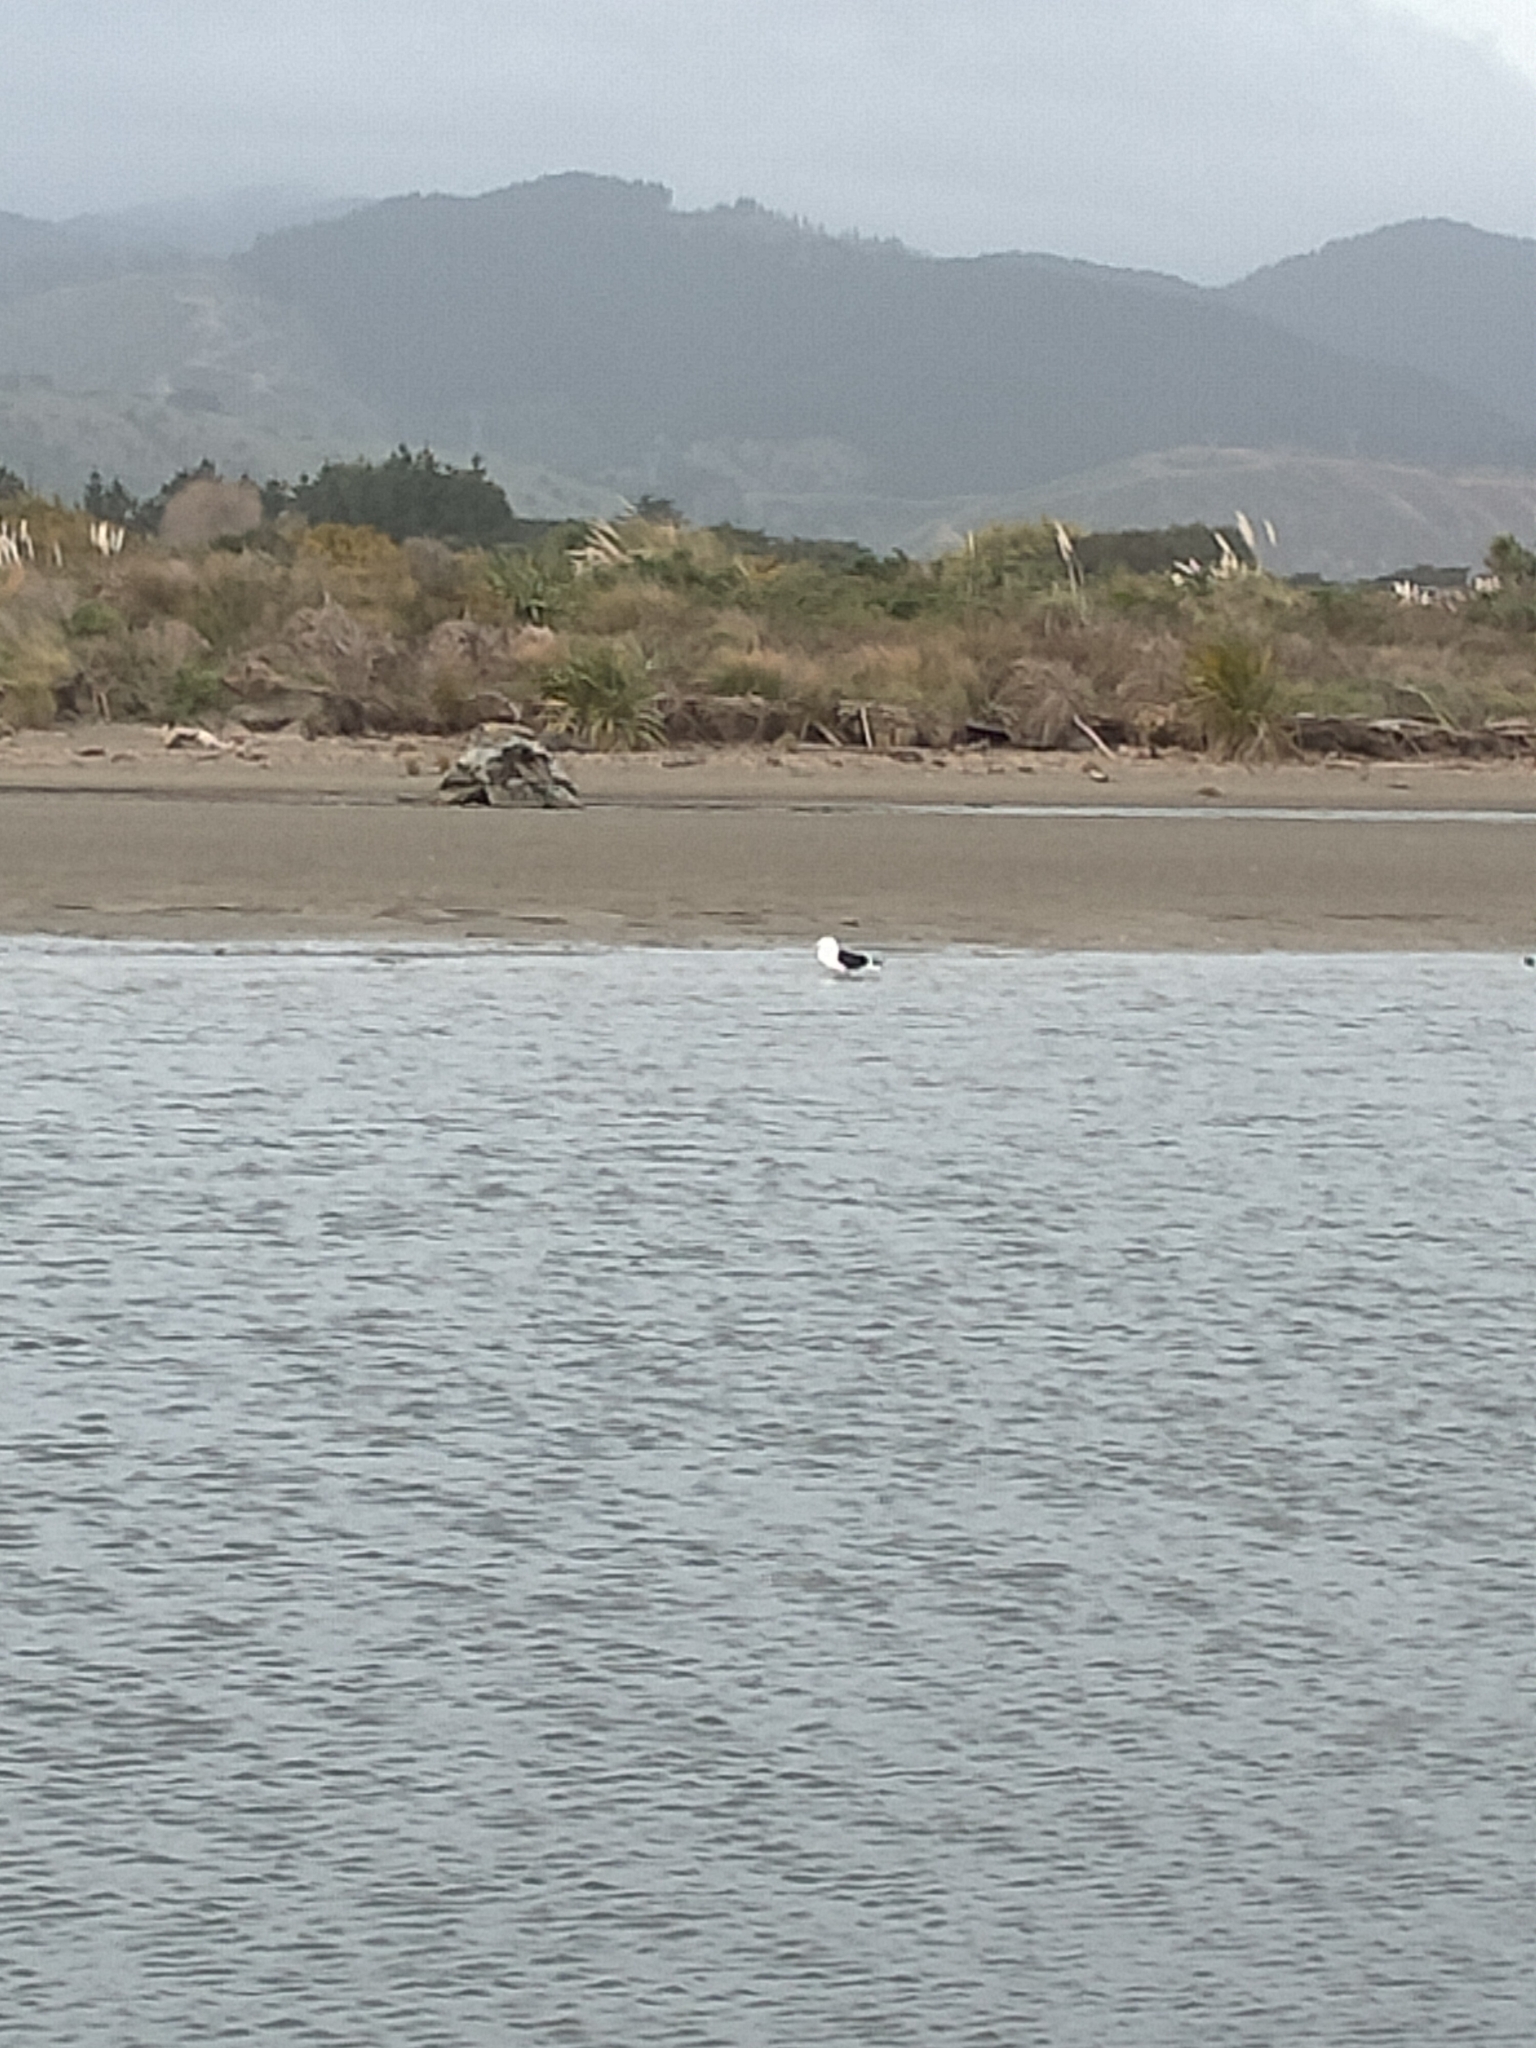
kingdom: Animalia
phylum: Chordata
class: Aves
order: Charadriiformes
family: Laridae
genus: Larus
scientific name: Larus dominicanus
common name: Kelp gull
